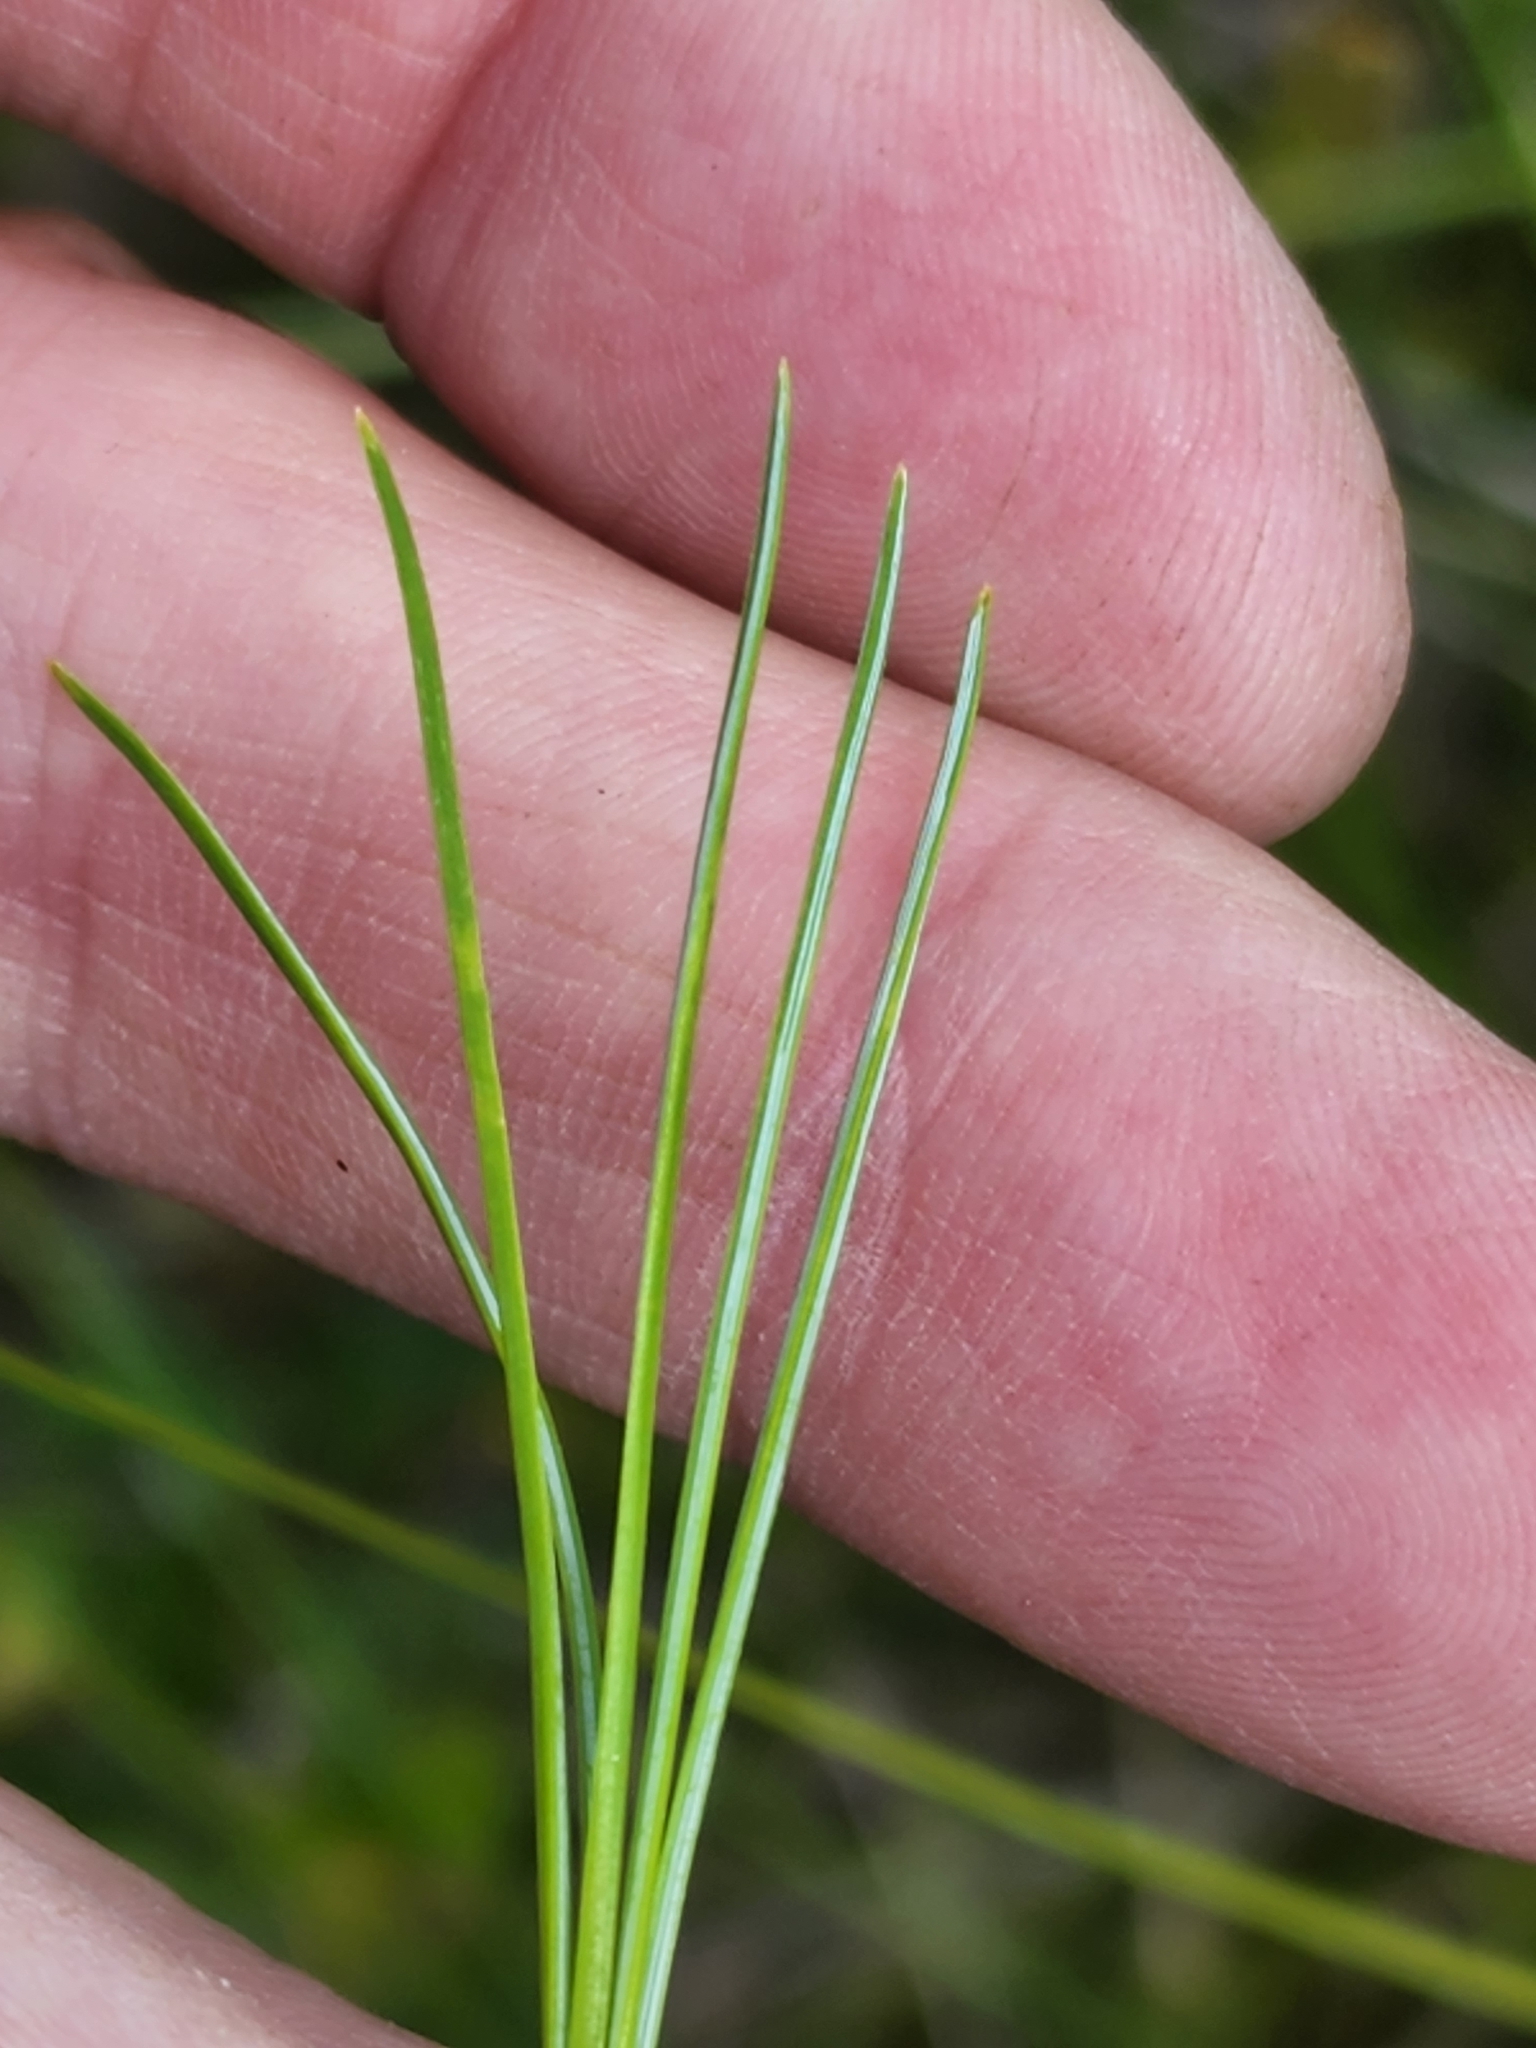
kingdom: Plantae
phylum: Tracheophyta
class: Pinopsida
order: Pinales
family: Pinaceae
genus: Pinus
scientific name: Pinus strobus
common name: Weymouth pine
